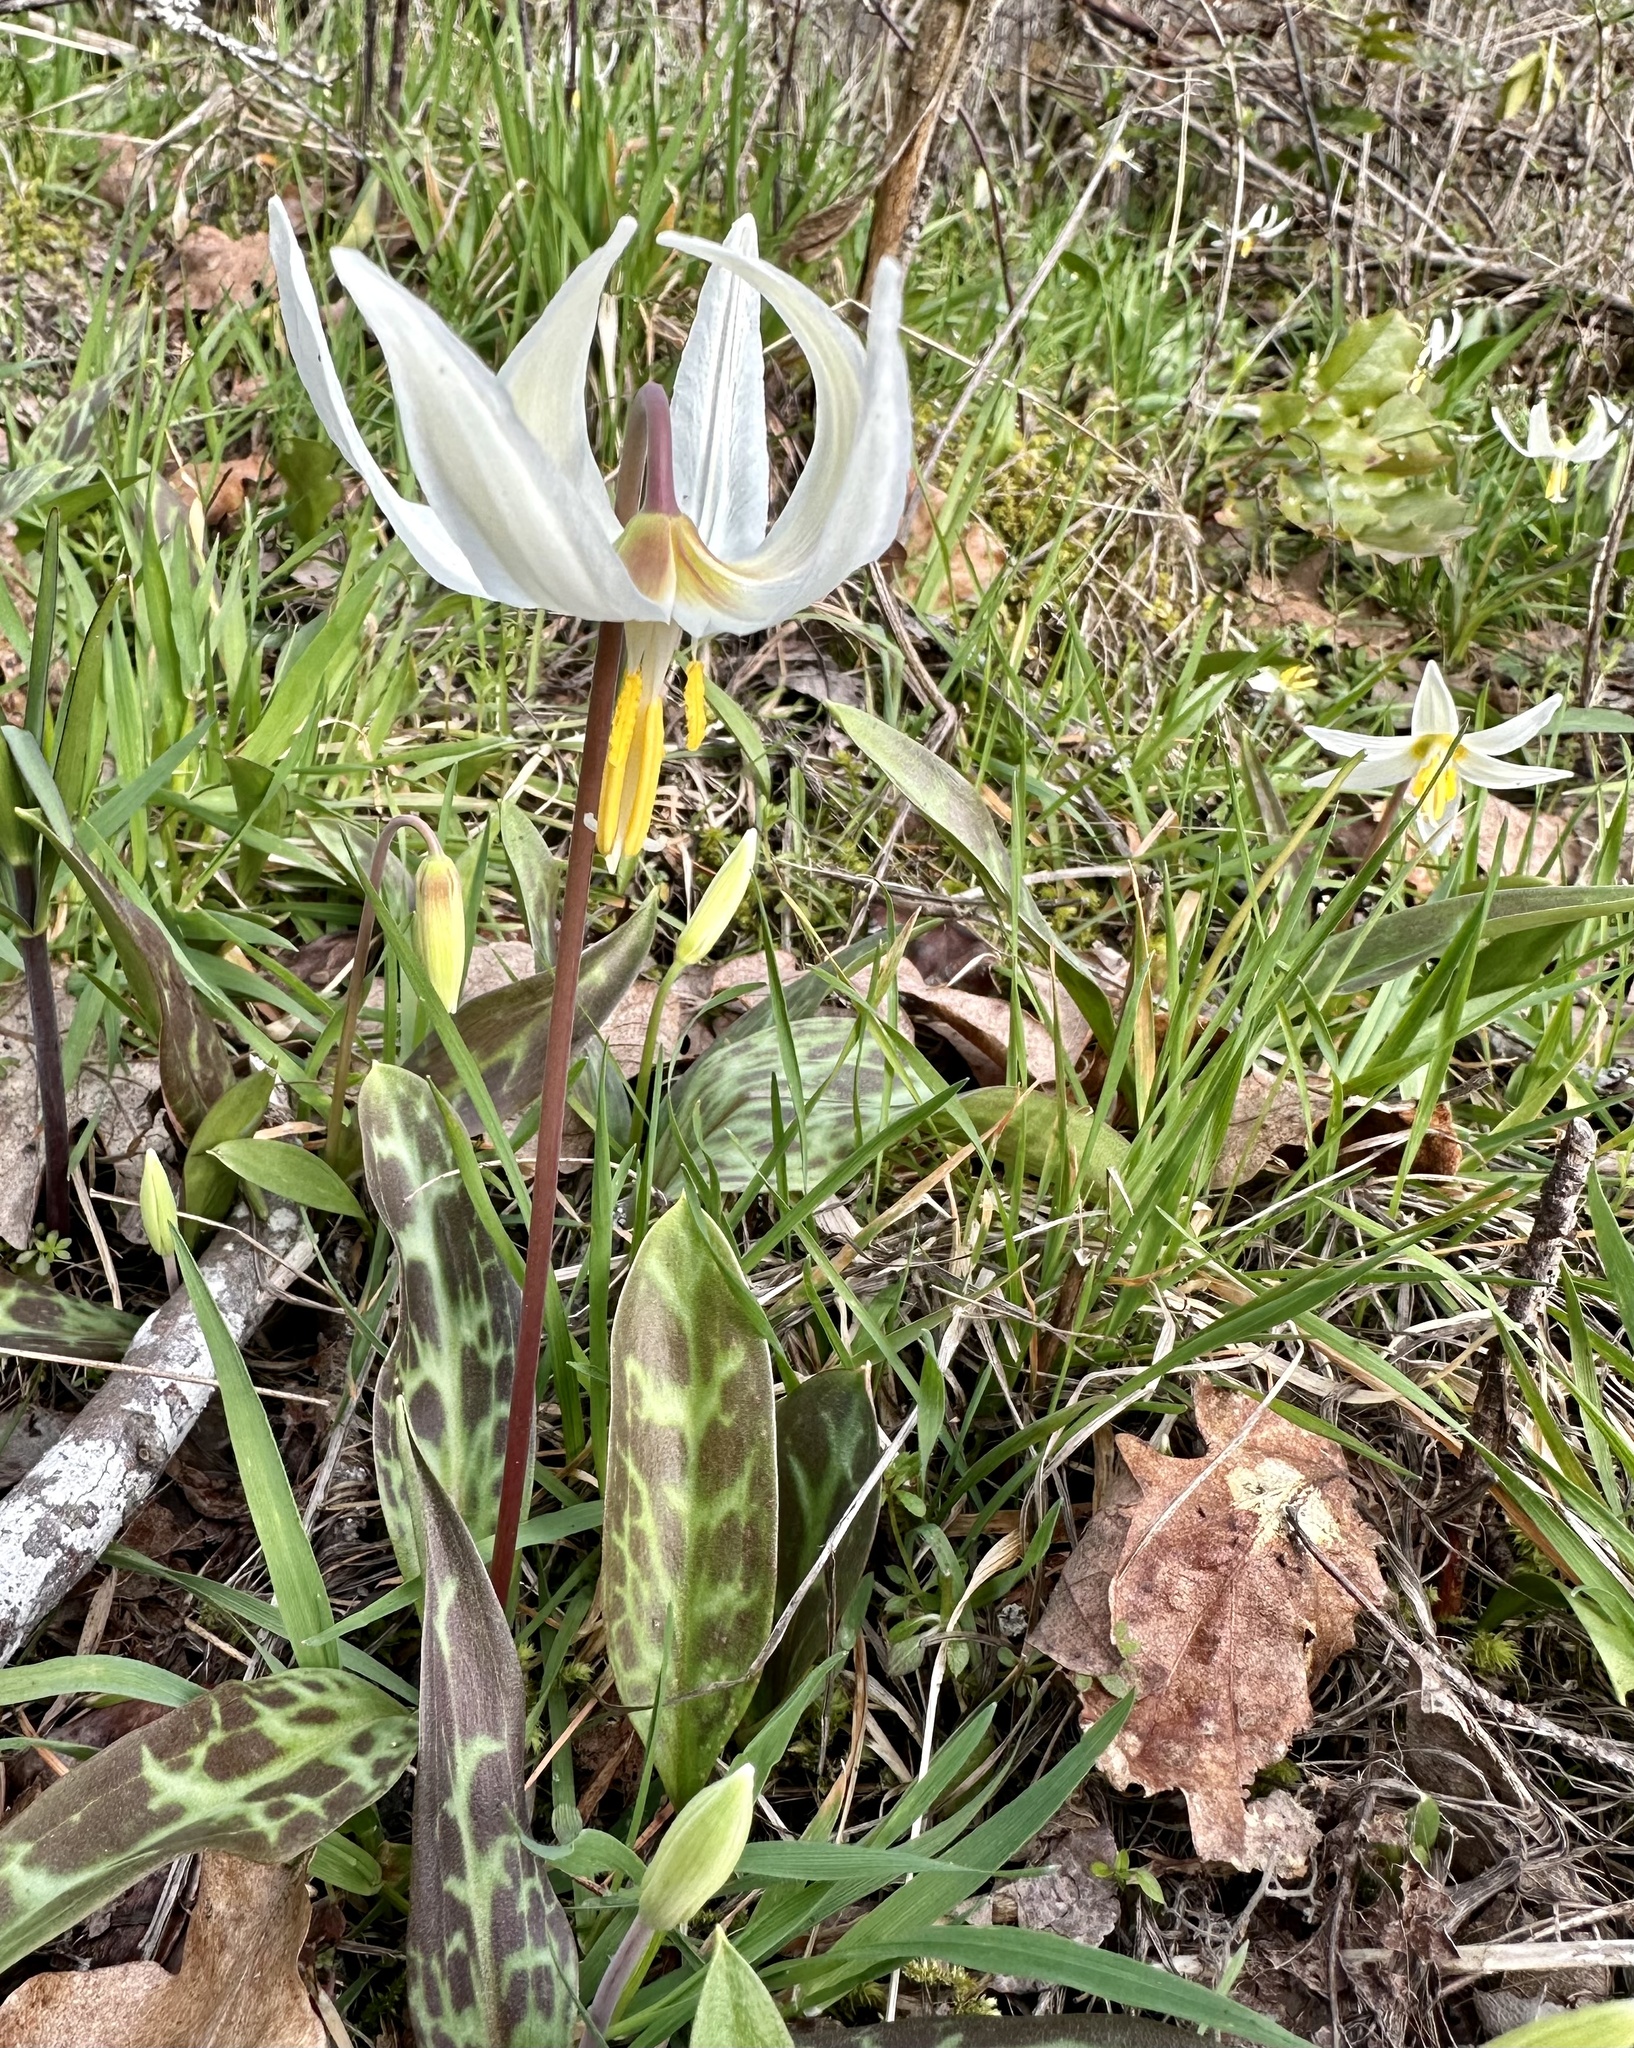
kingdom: Plantae
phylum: Tracheophyta
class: Liliopsida
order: Liliales
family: Liliaceae
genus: Erythronium
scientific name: Erythronium oregonum
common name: Giant adder's-tongue
